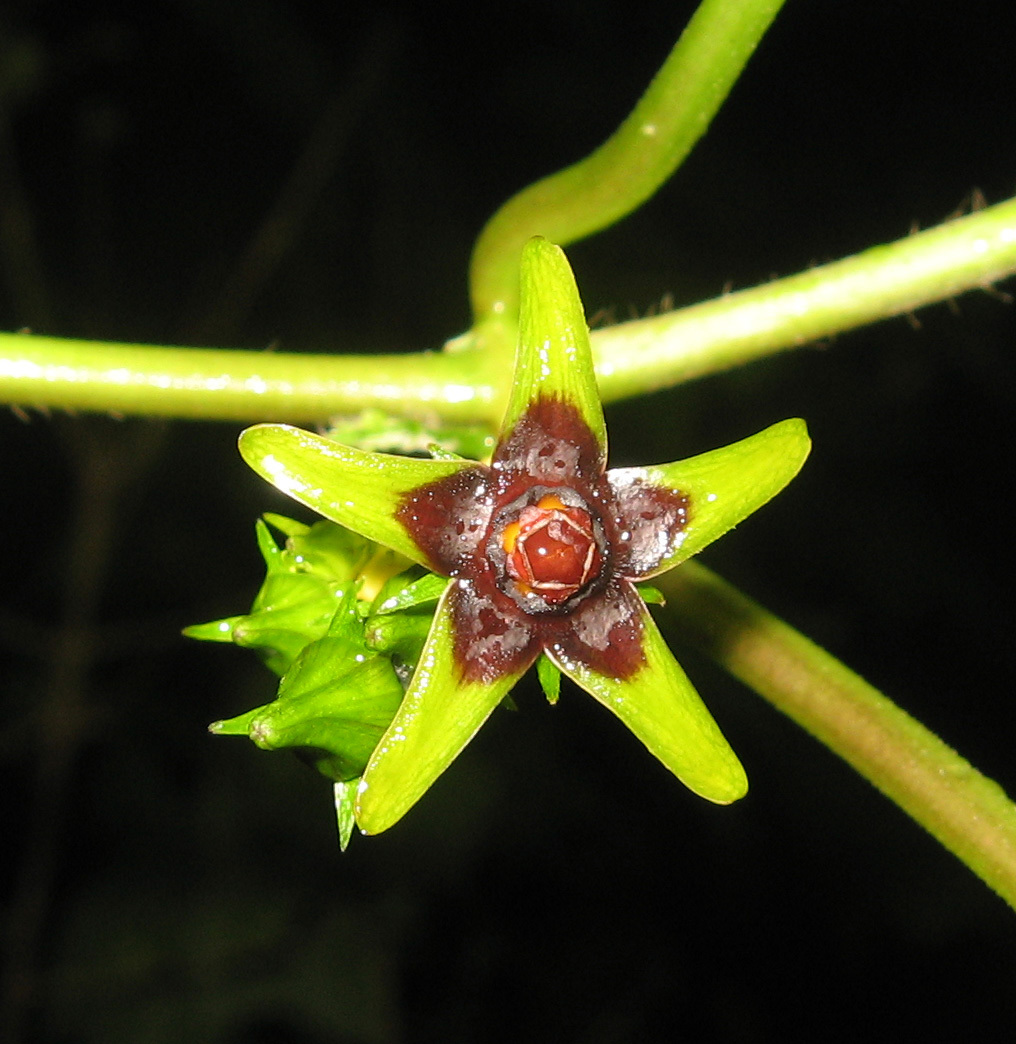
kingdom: Plantae
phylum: Tracheophyta
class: Magnoliopsida
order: Gentianales
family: Apocynaceae
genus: Gonolobus
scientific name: Gonolobus suberosus
